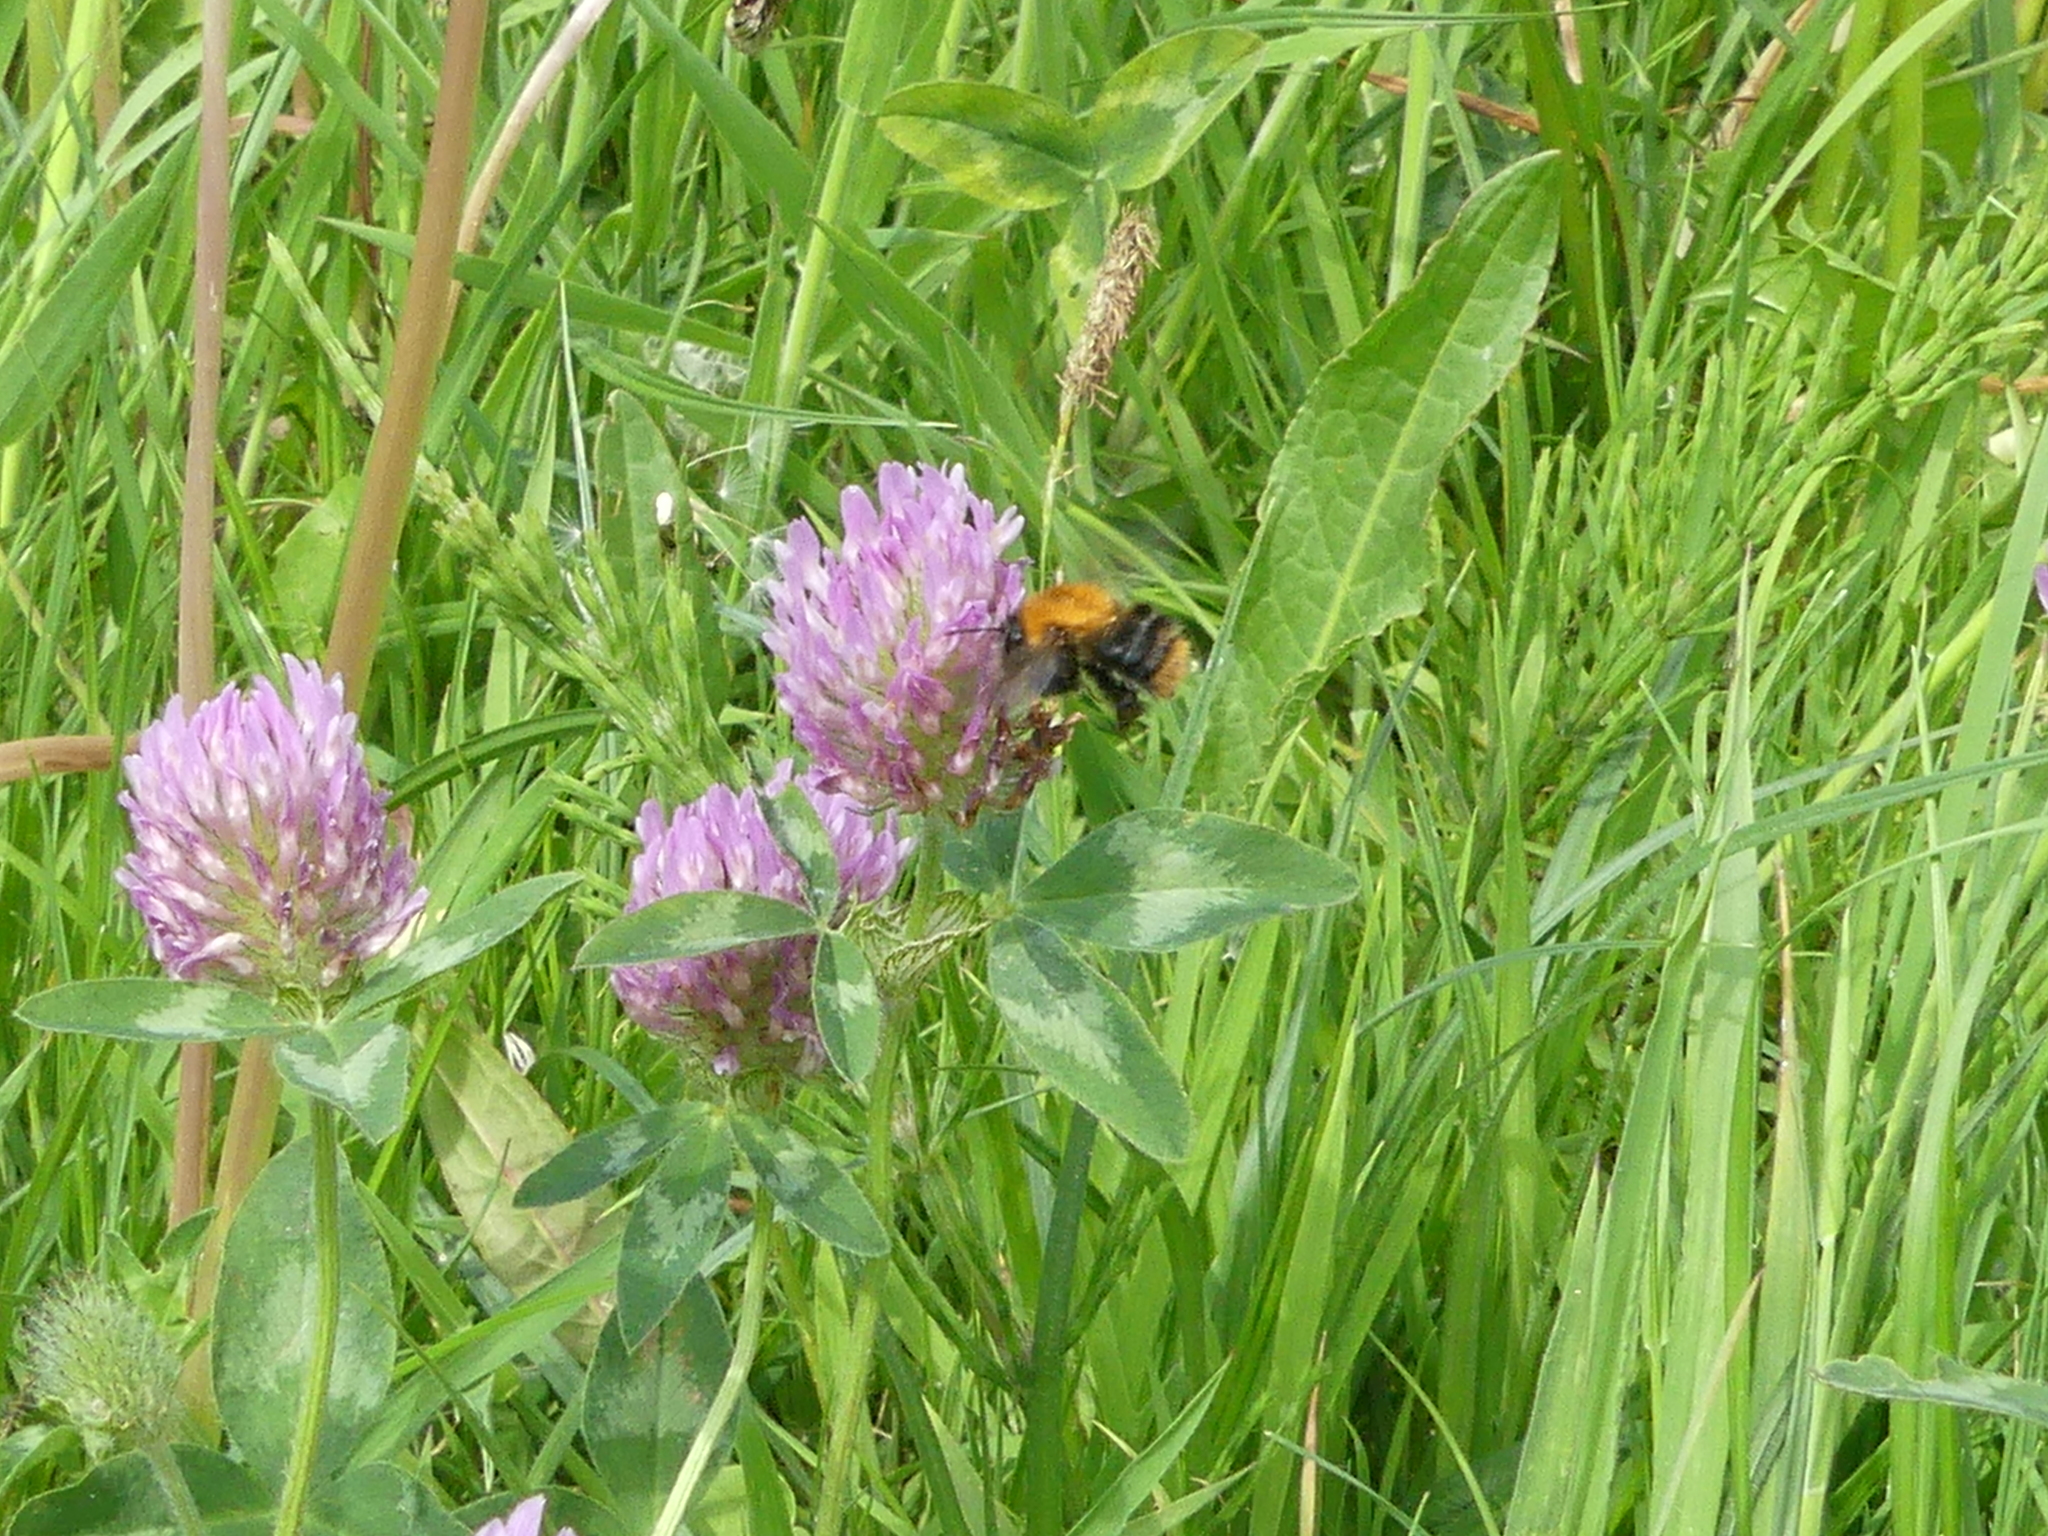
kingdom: Animalia
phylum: Arthropoda
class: Insecta
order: Hymenoptera
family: Apidae
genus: Bombus
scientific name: Bombus pascuorum
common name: Common carder bee
